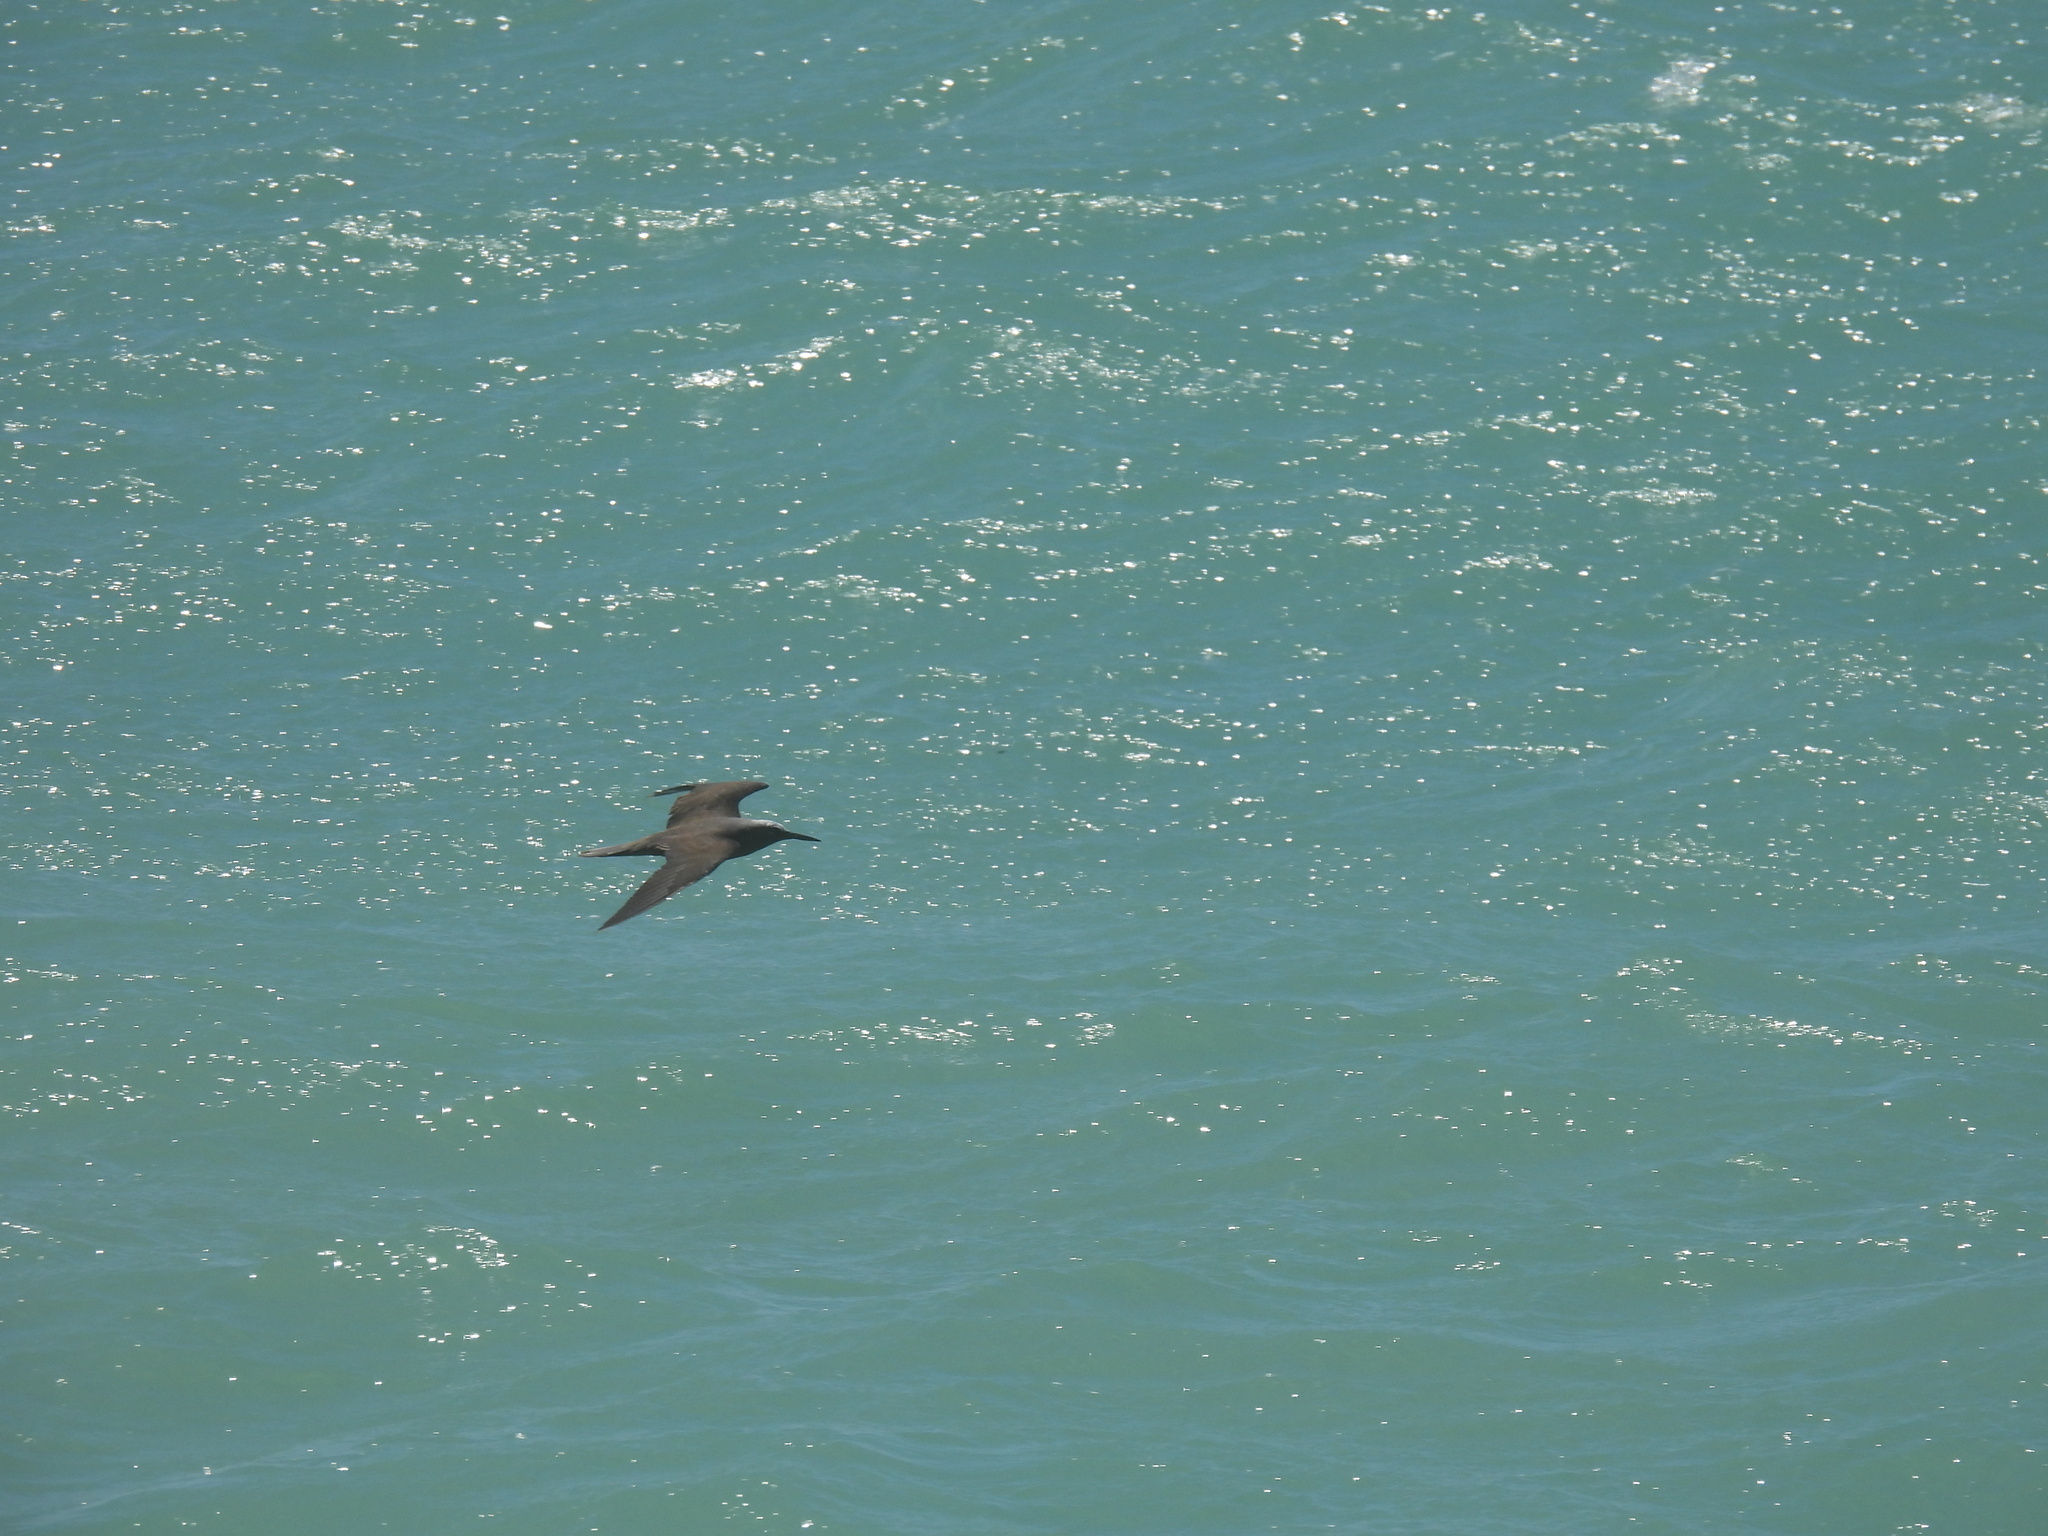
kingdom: Animalia
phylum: Chordata
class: Aves
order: Charadriiformes
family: Laridae
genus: Anous
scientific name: Anous minutus
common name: Black noddy
